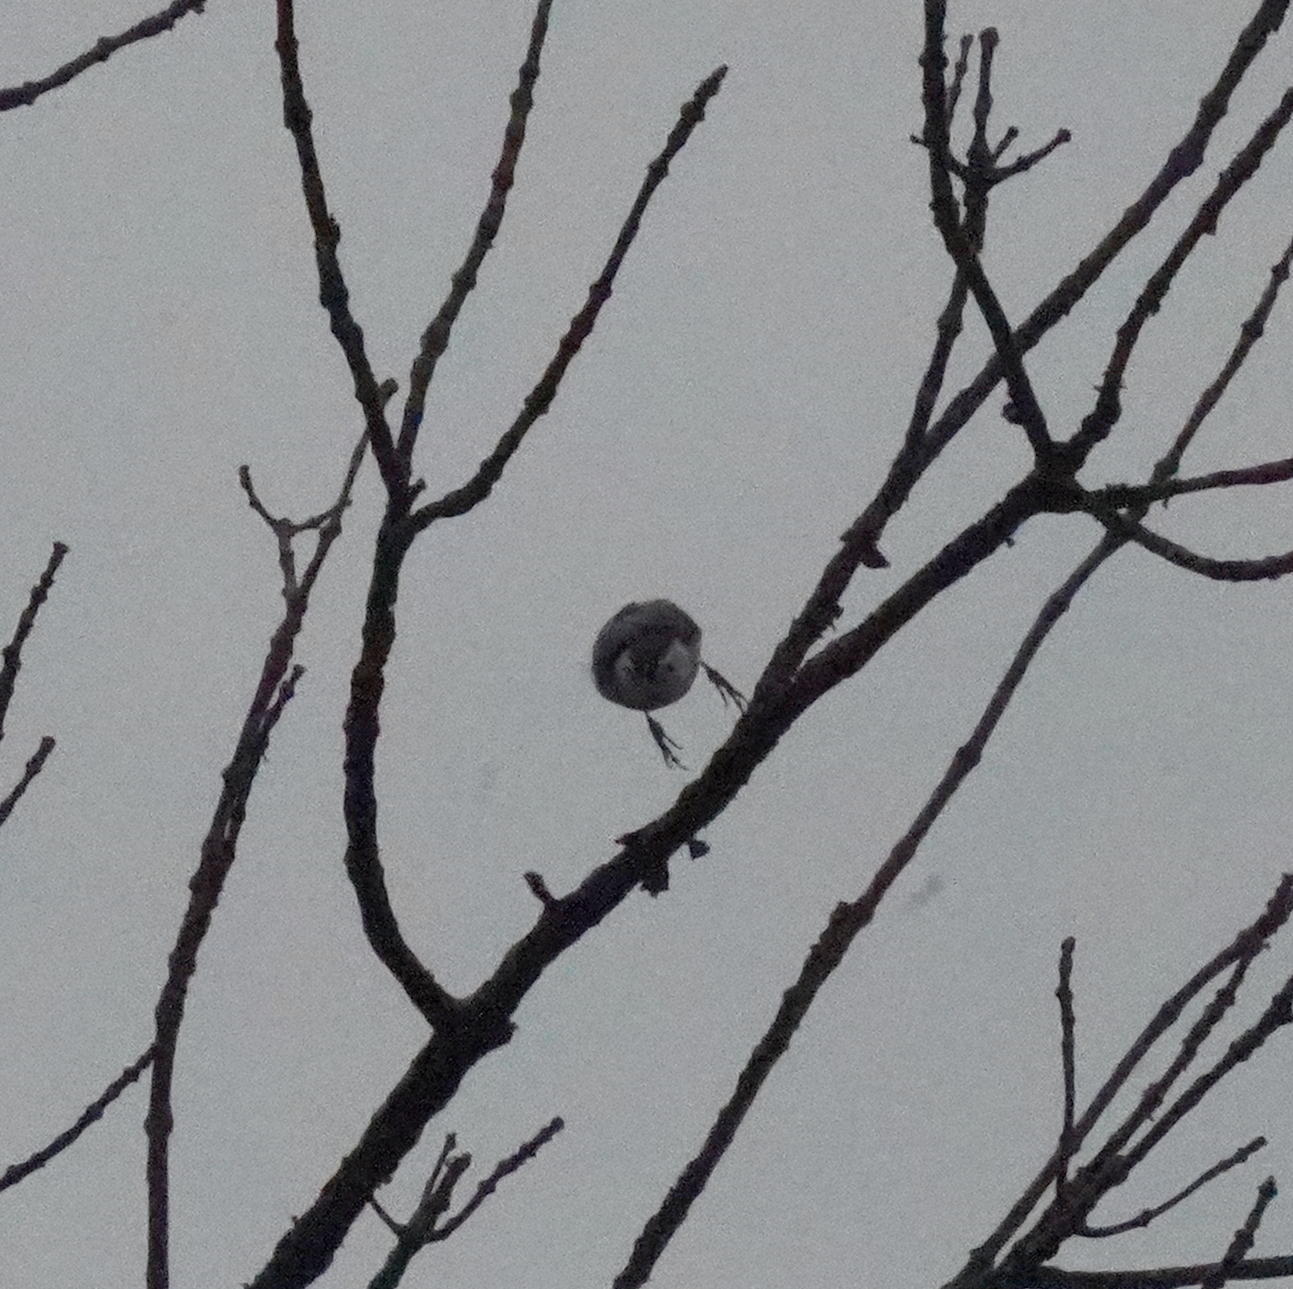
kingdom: Animalia
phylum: Chordata
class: Aves
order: Passeriformes
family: Sittidae
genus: Sitta
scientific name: Sitta carolinensis
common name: White-breasted nuthatch
